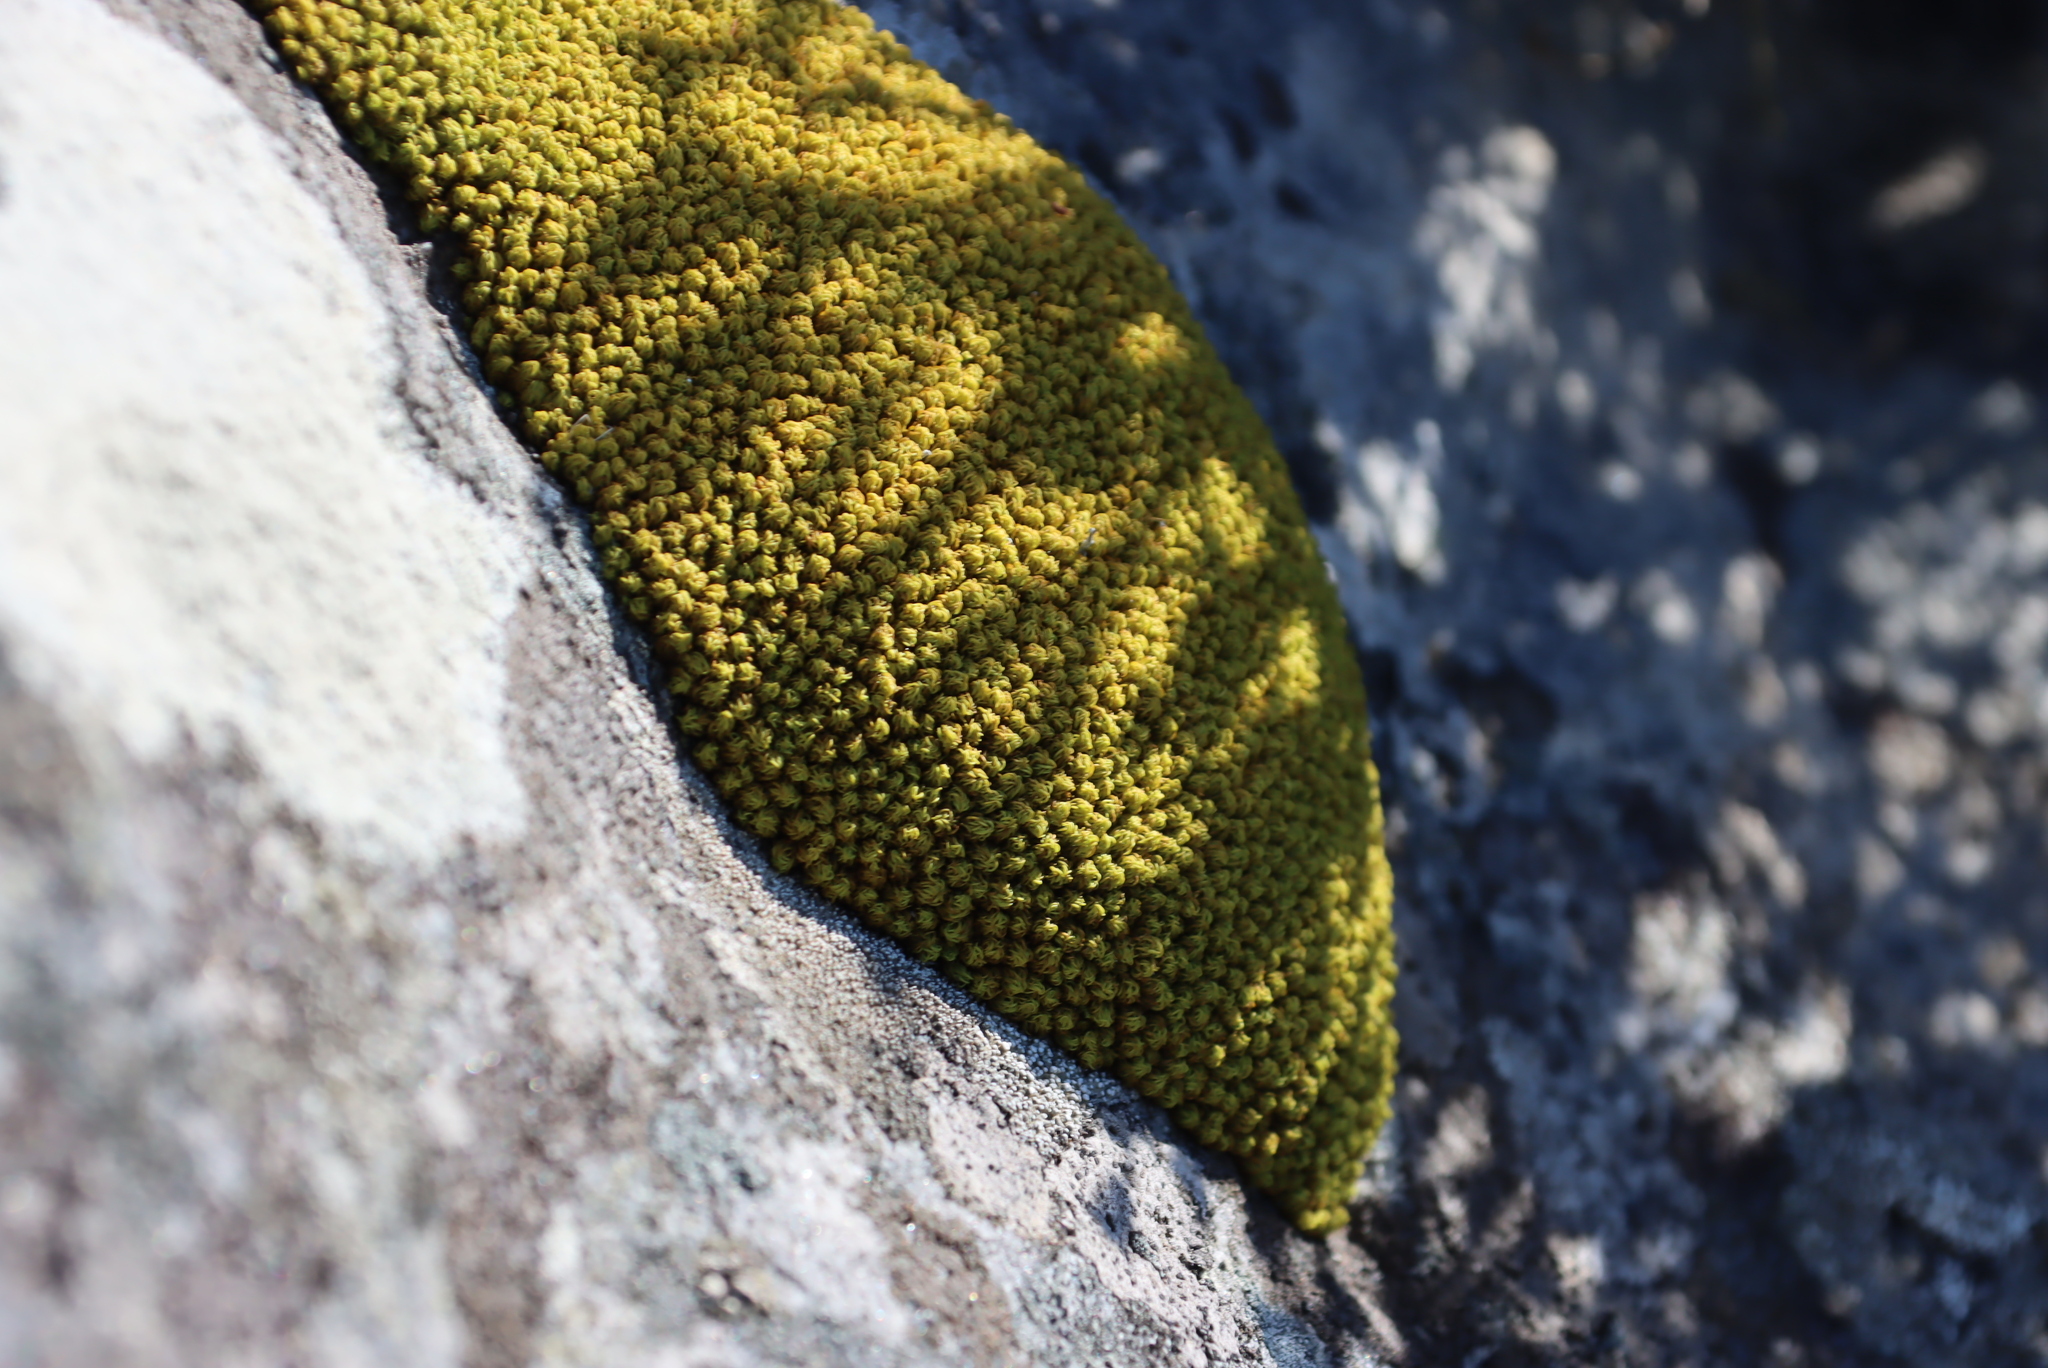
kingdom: Plantae
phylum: Bryophyta
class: Bryopsida
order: Dicranales
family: Hypodontiaceae
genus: Hypodontium
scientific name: Hypodontium pomiforme
